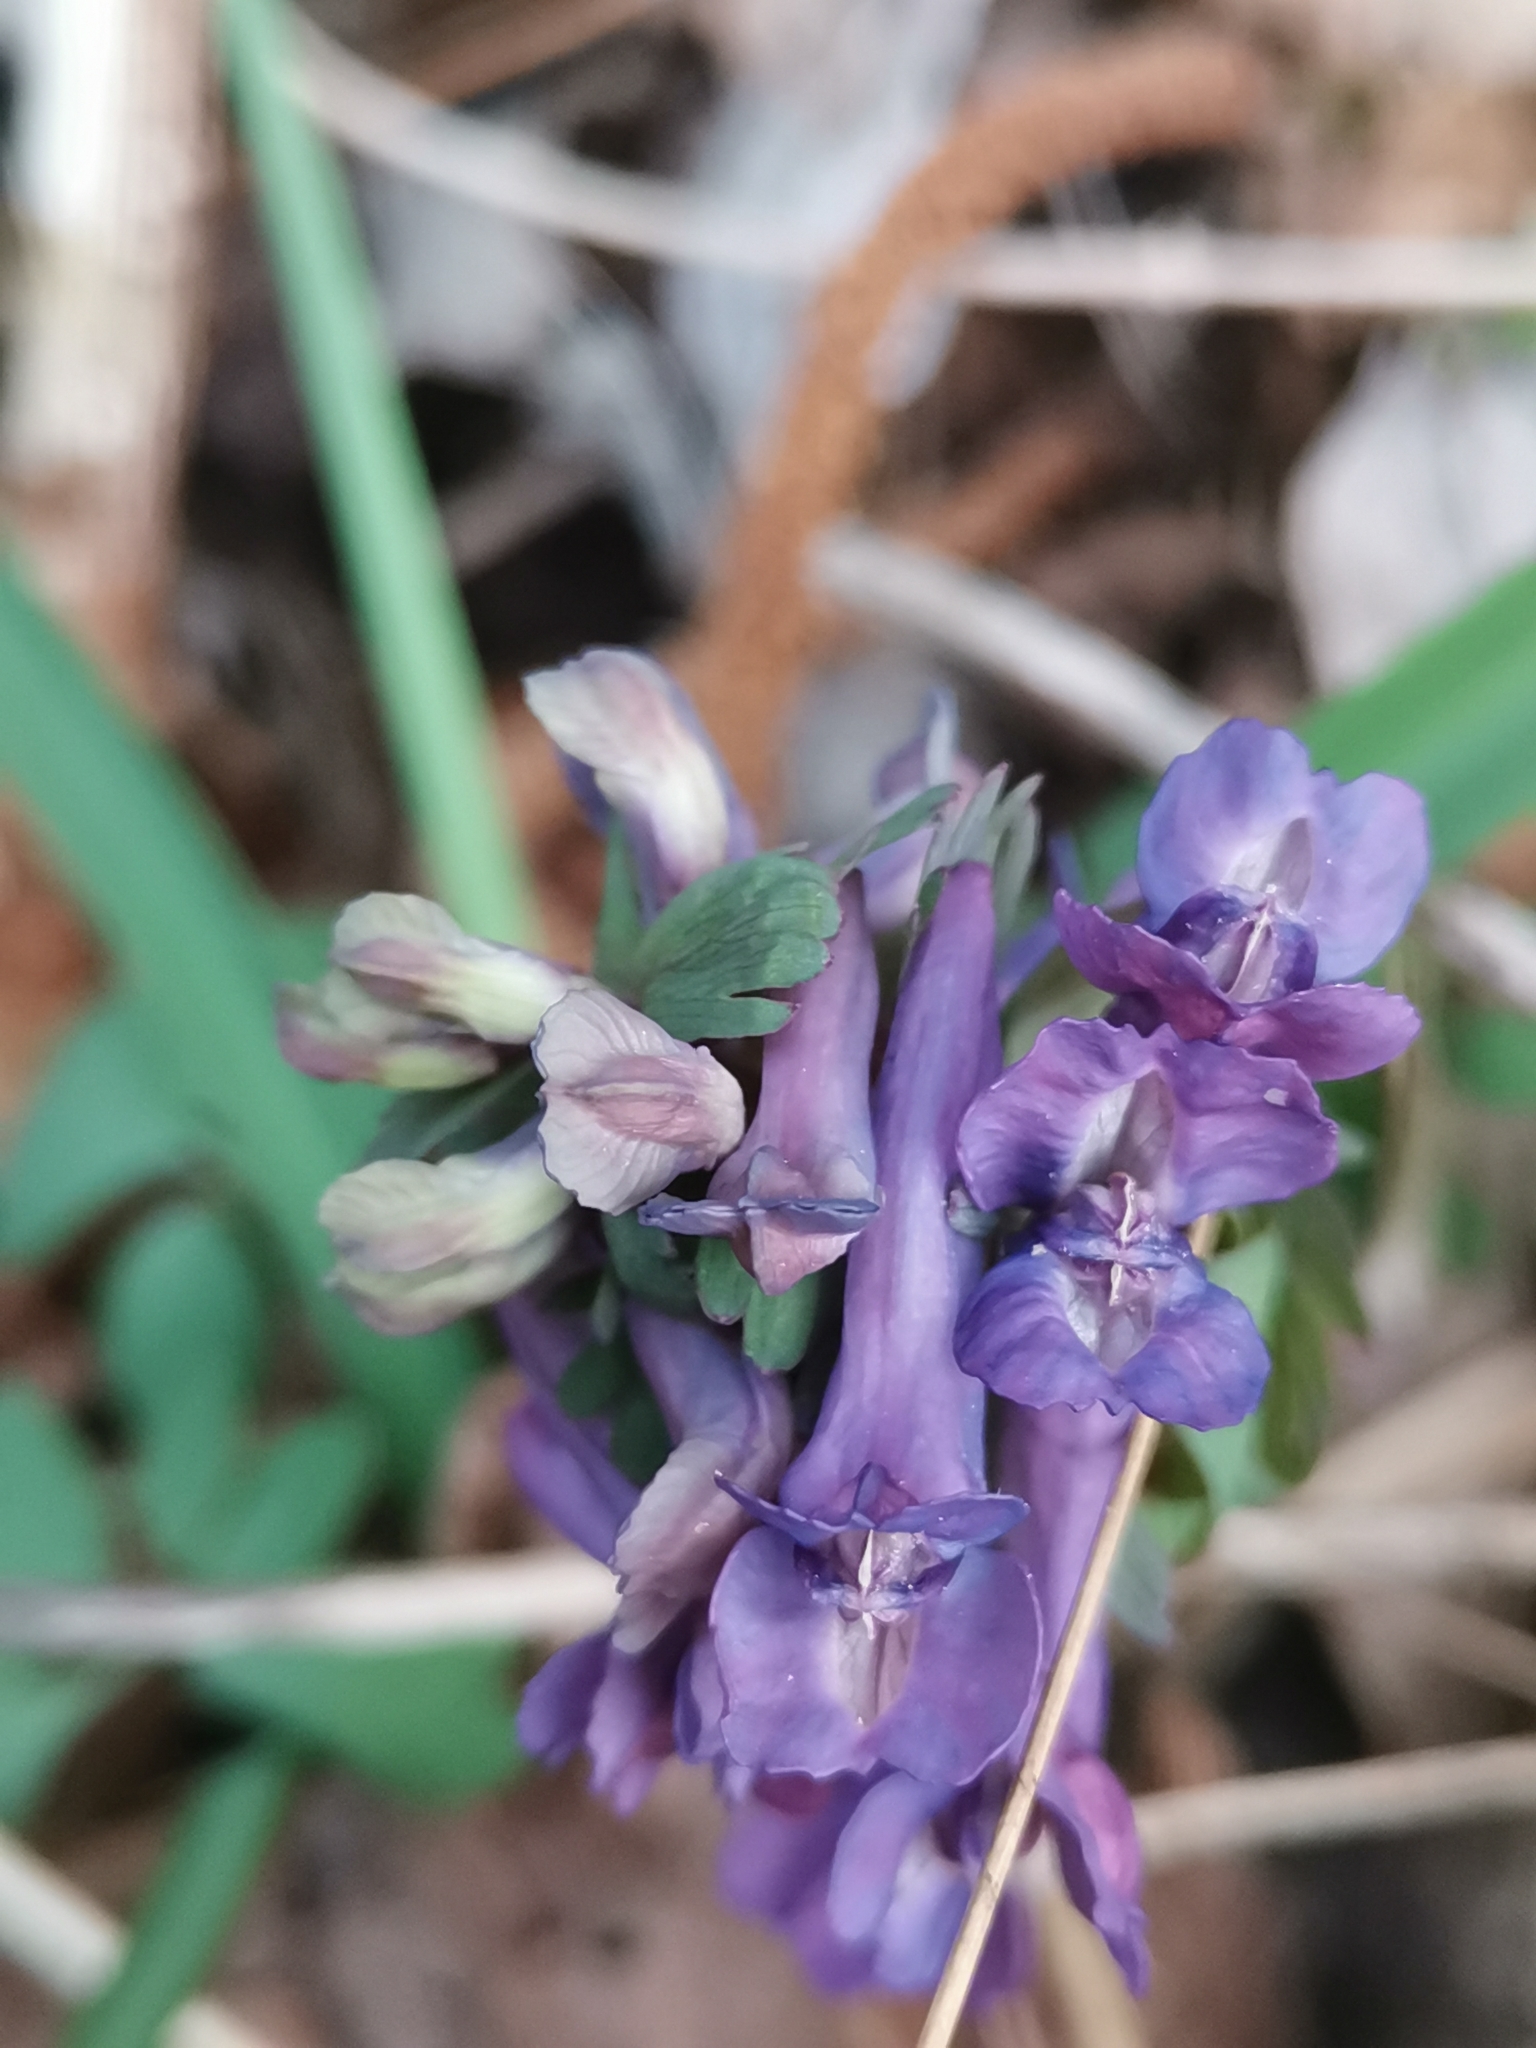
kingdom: Plantae
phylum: Tracheophyta
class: Magnoliopsida
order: Ranunculales
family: Papaveraceae
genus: Corydalis
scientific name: Corydalis solida
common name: Bird-in-a-bush
